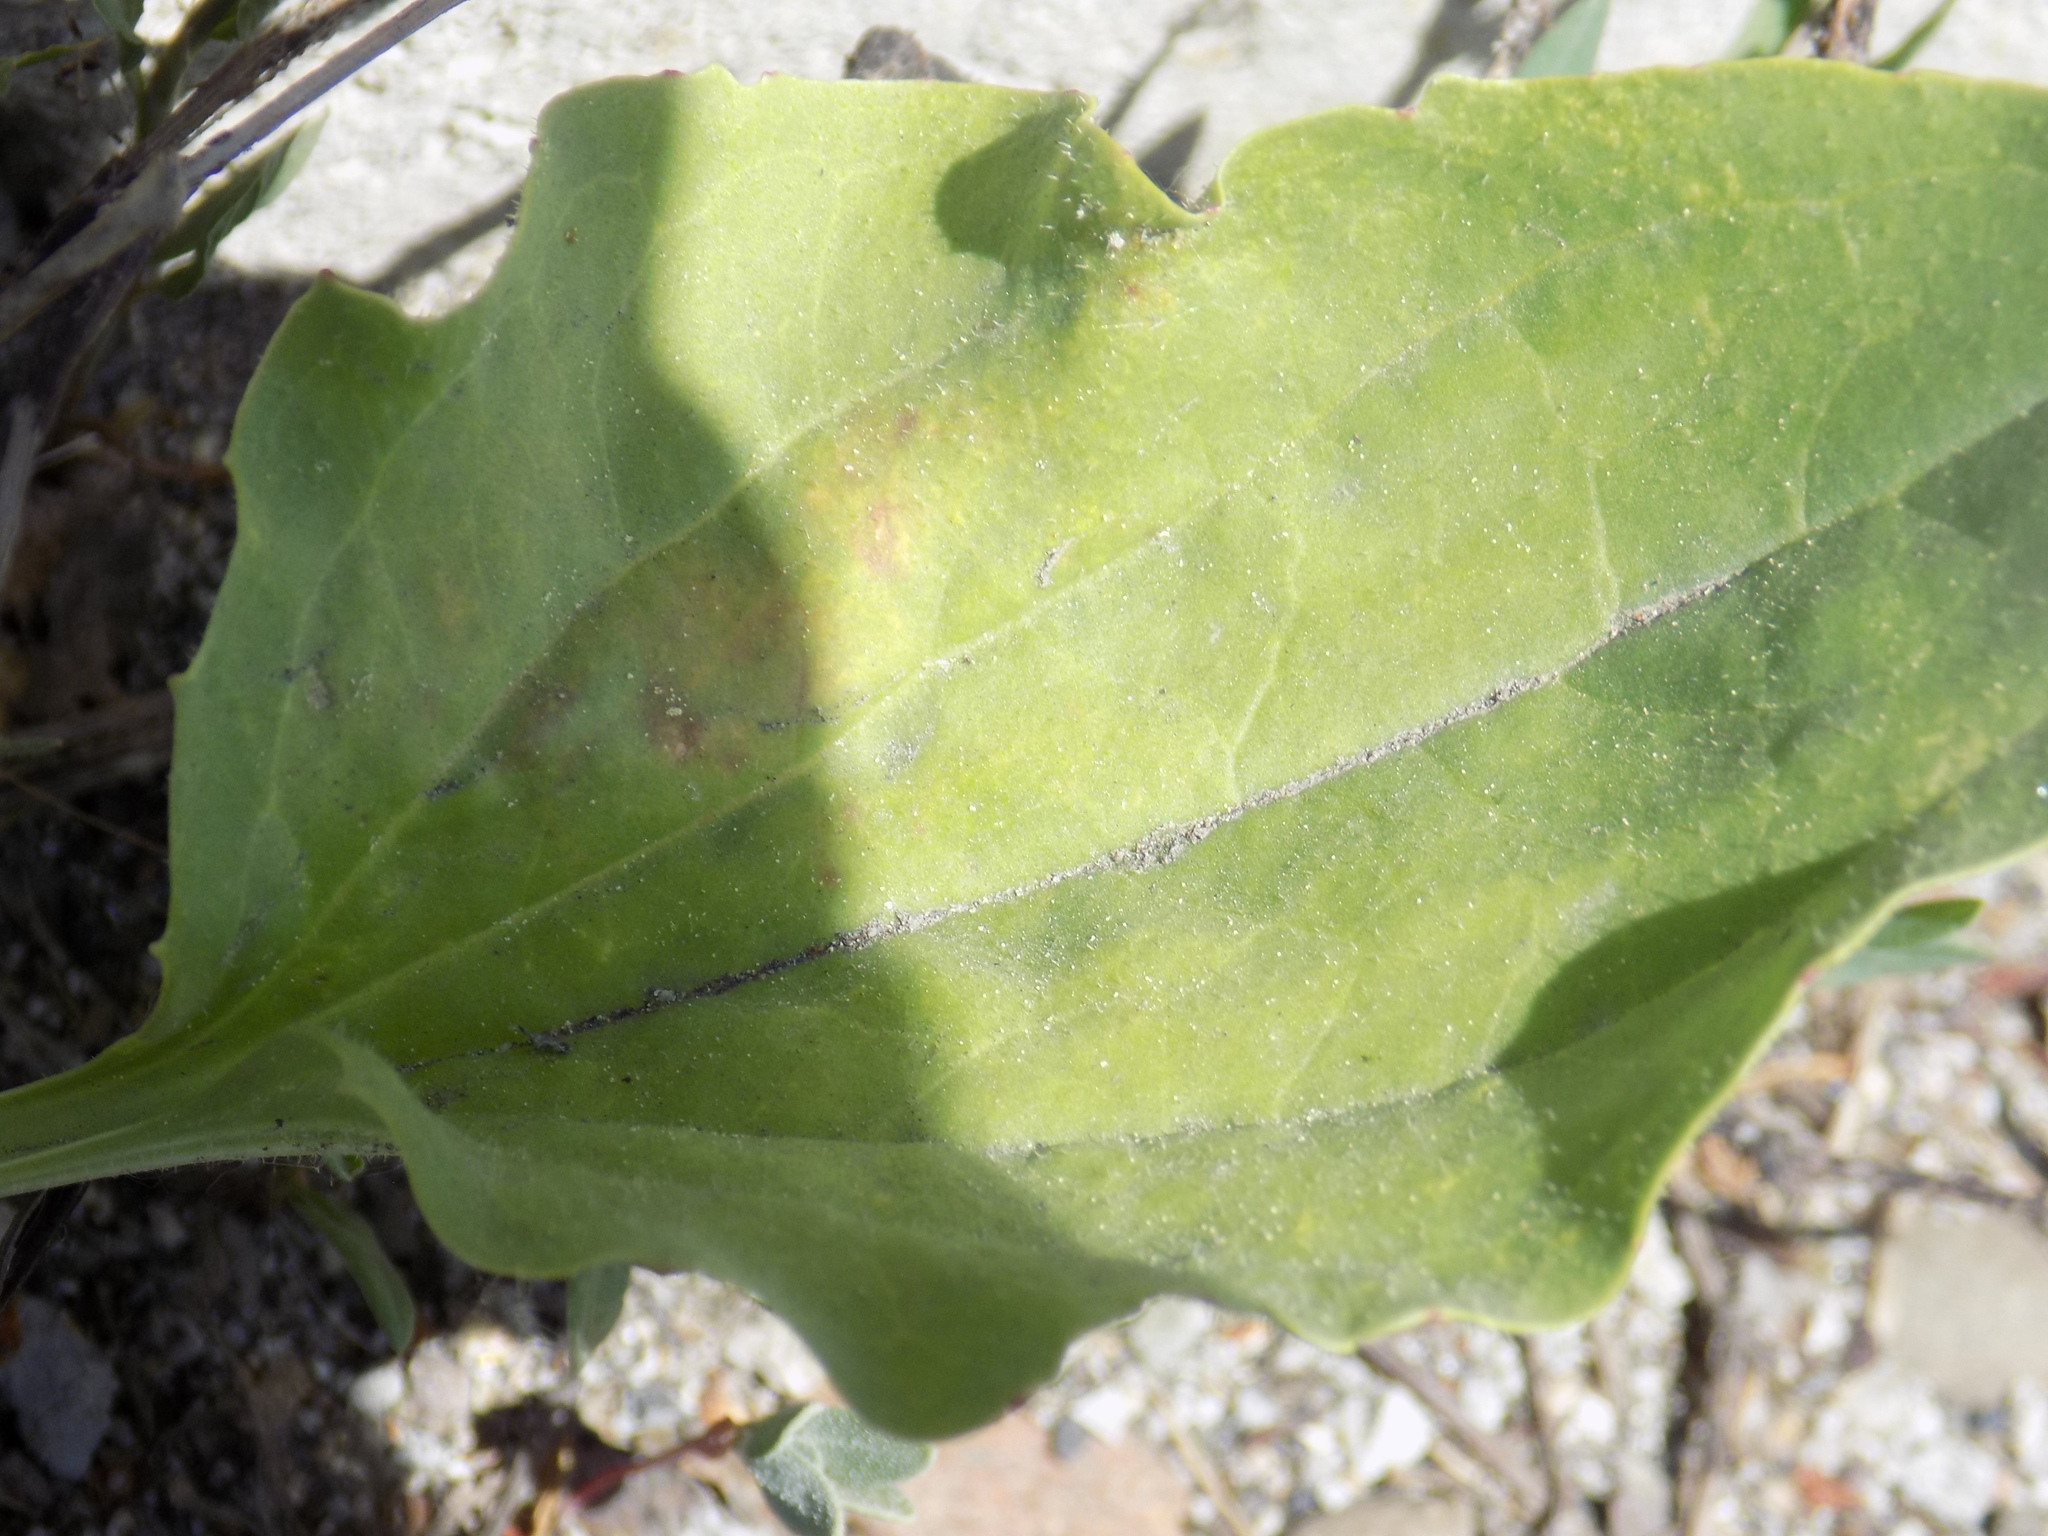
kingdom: Plantae
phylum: Tracheophyta
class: Magnoliopsida
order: Lamiales
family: Plantaginaceae
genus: Plantago
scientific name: Plantago major
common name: Common plantain
